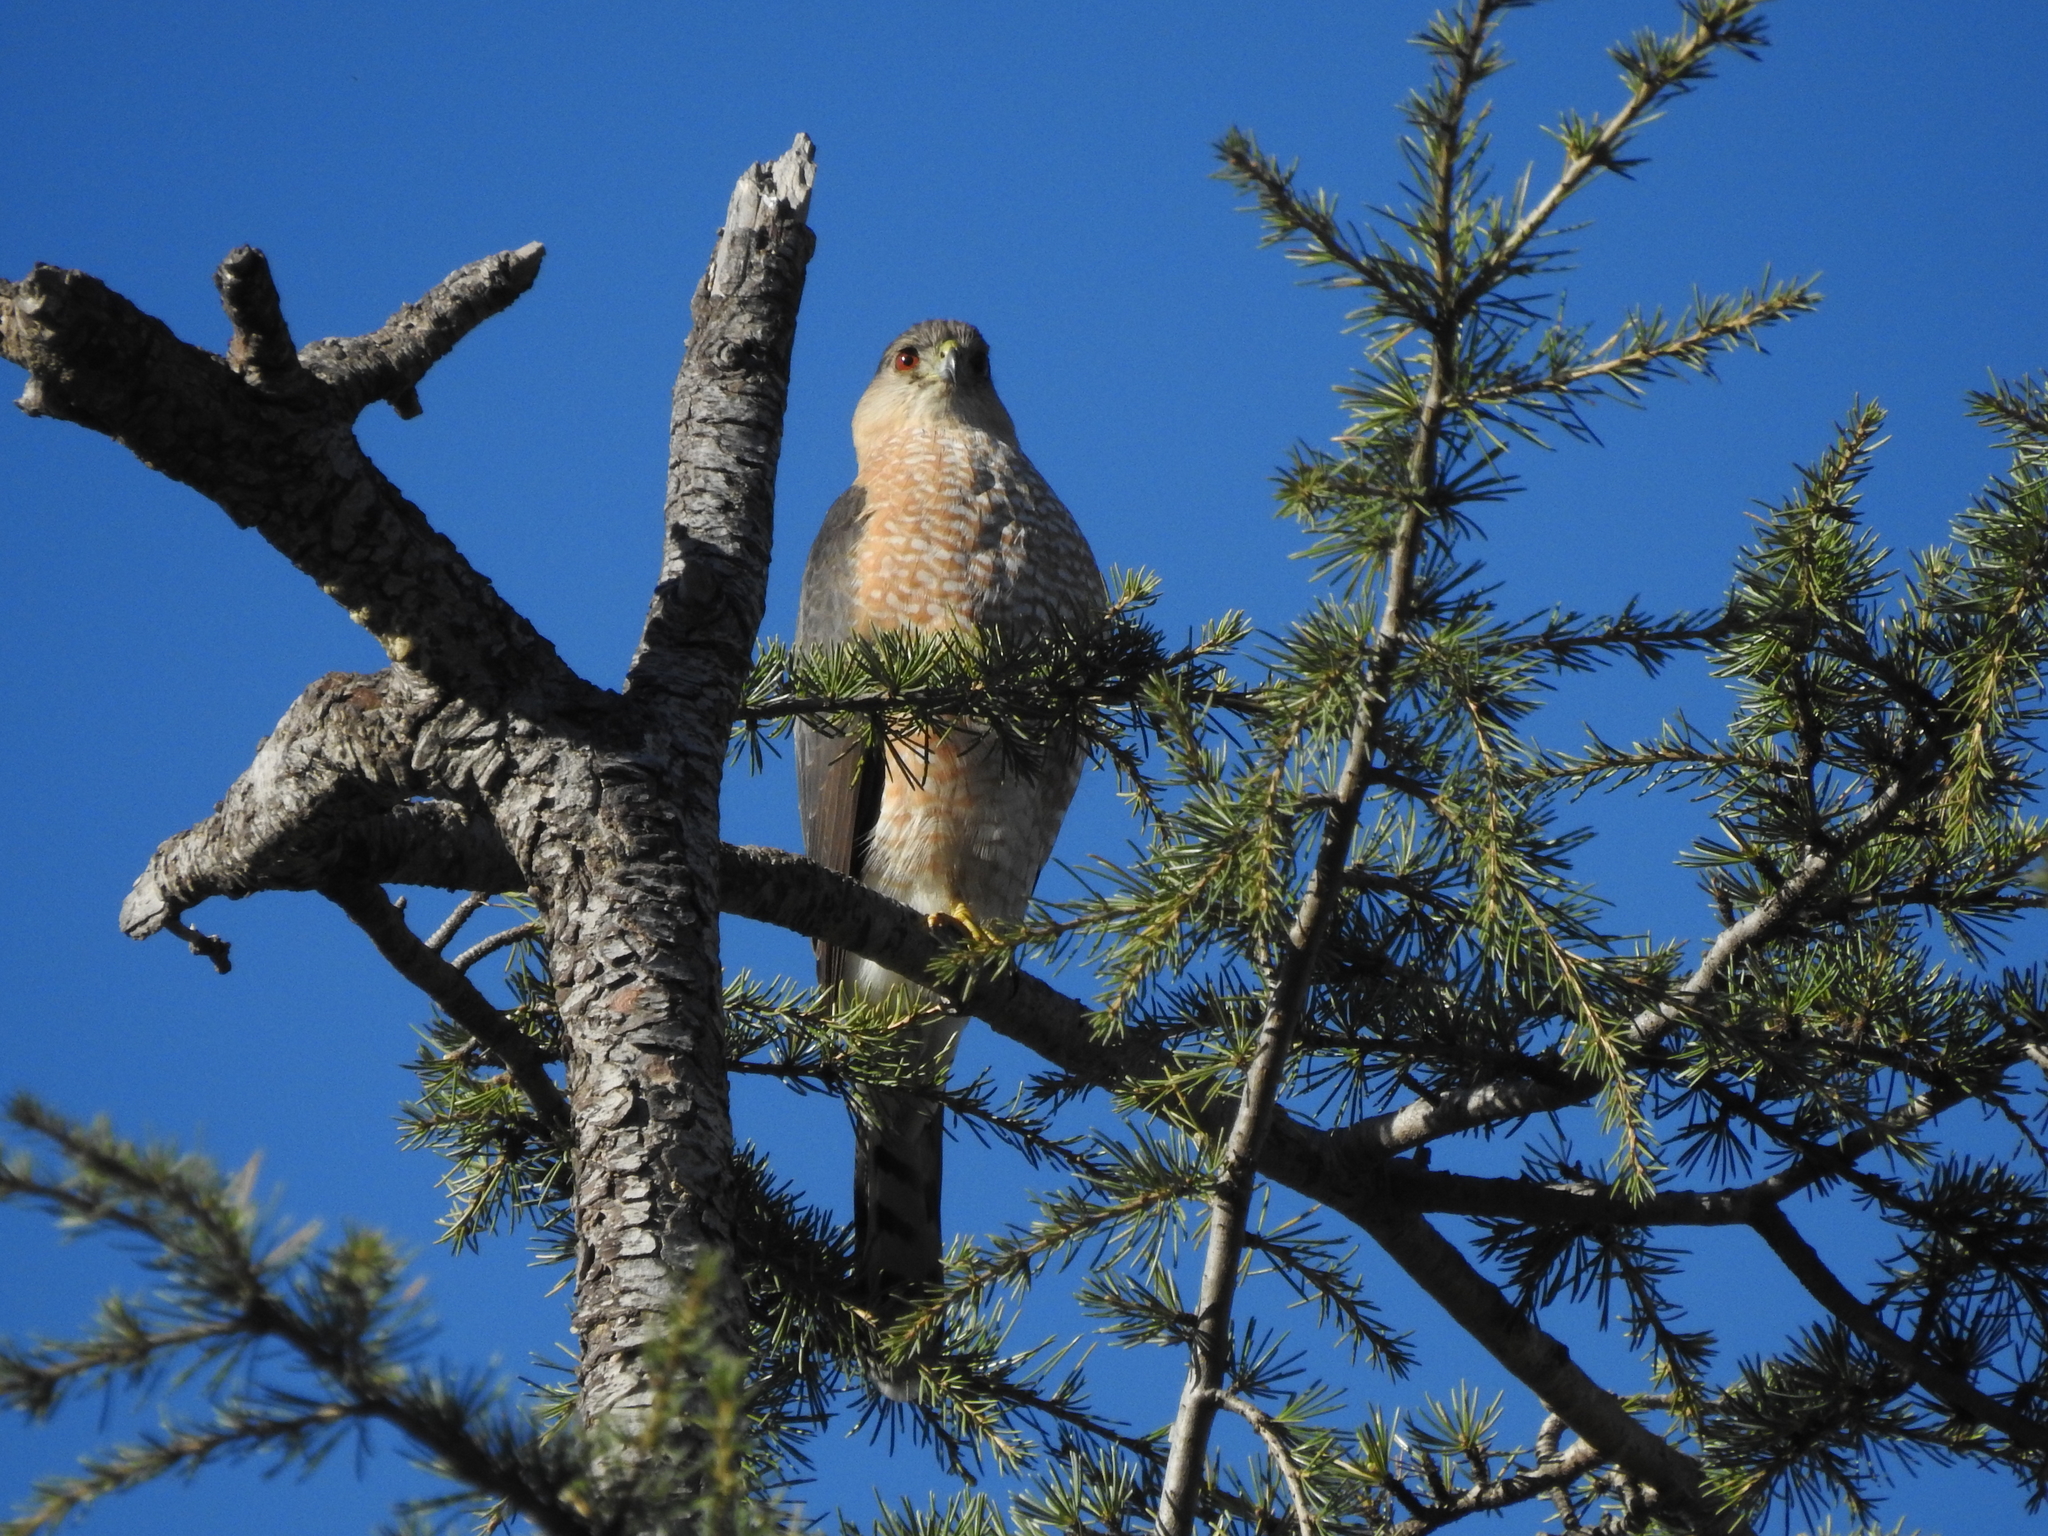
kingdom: Animalia
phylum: Chordata
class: Aves
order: Accipitriformes
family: Accipitridae
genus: Accipiter
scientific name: Accipiter cooperii
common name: Cooper's hawk
